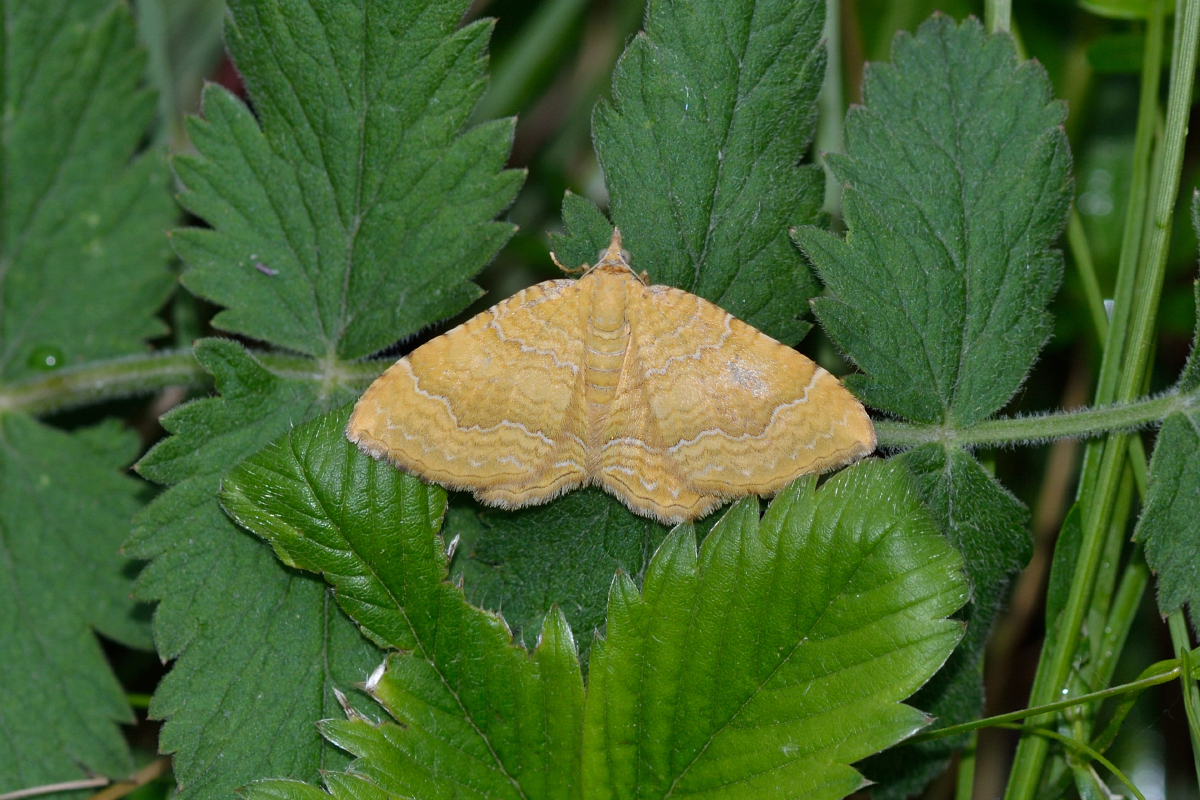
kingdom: Animalia
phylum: Arthropoda
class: Insecta
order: Lepidoptera
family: Geometridae
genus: Camptogramma
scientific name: Camptogramma bilineata
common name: Yellow shell
